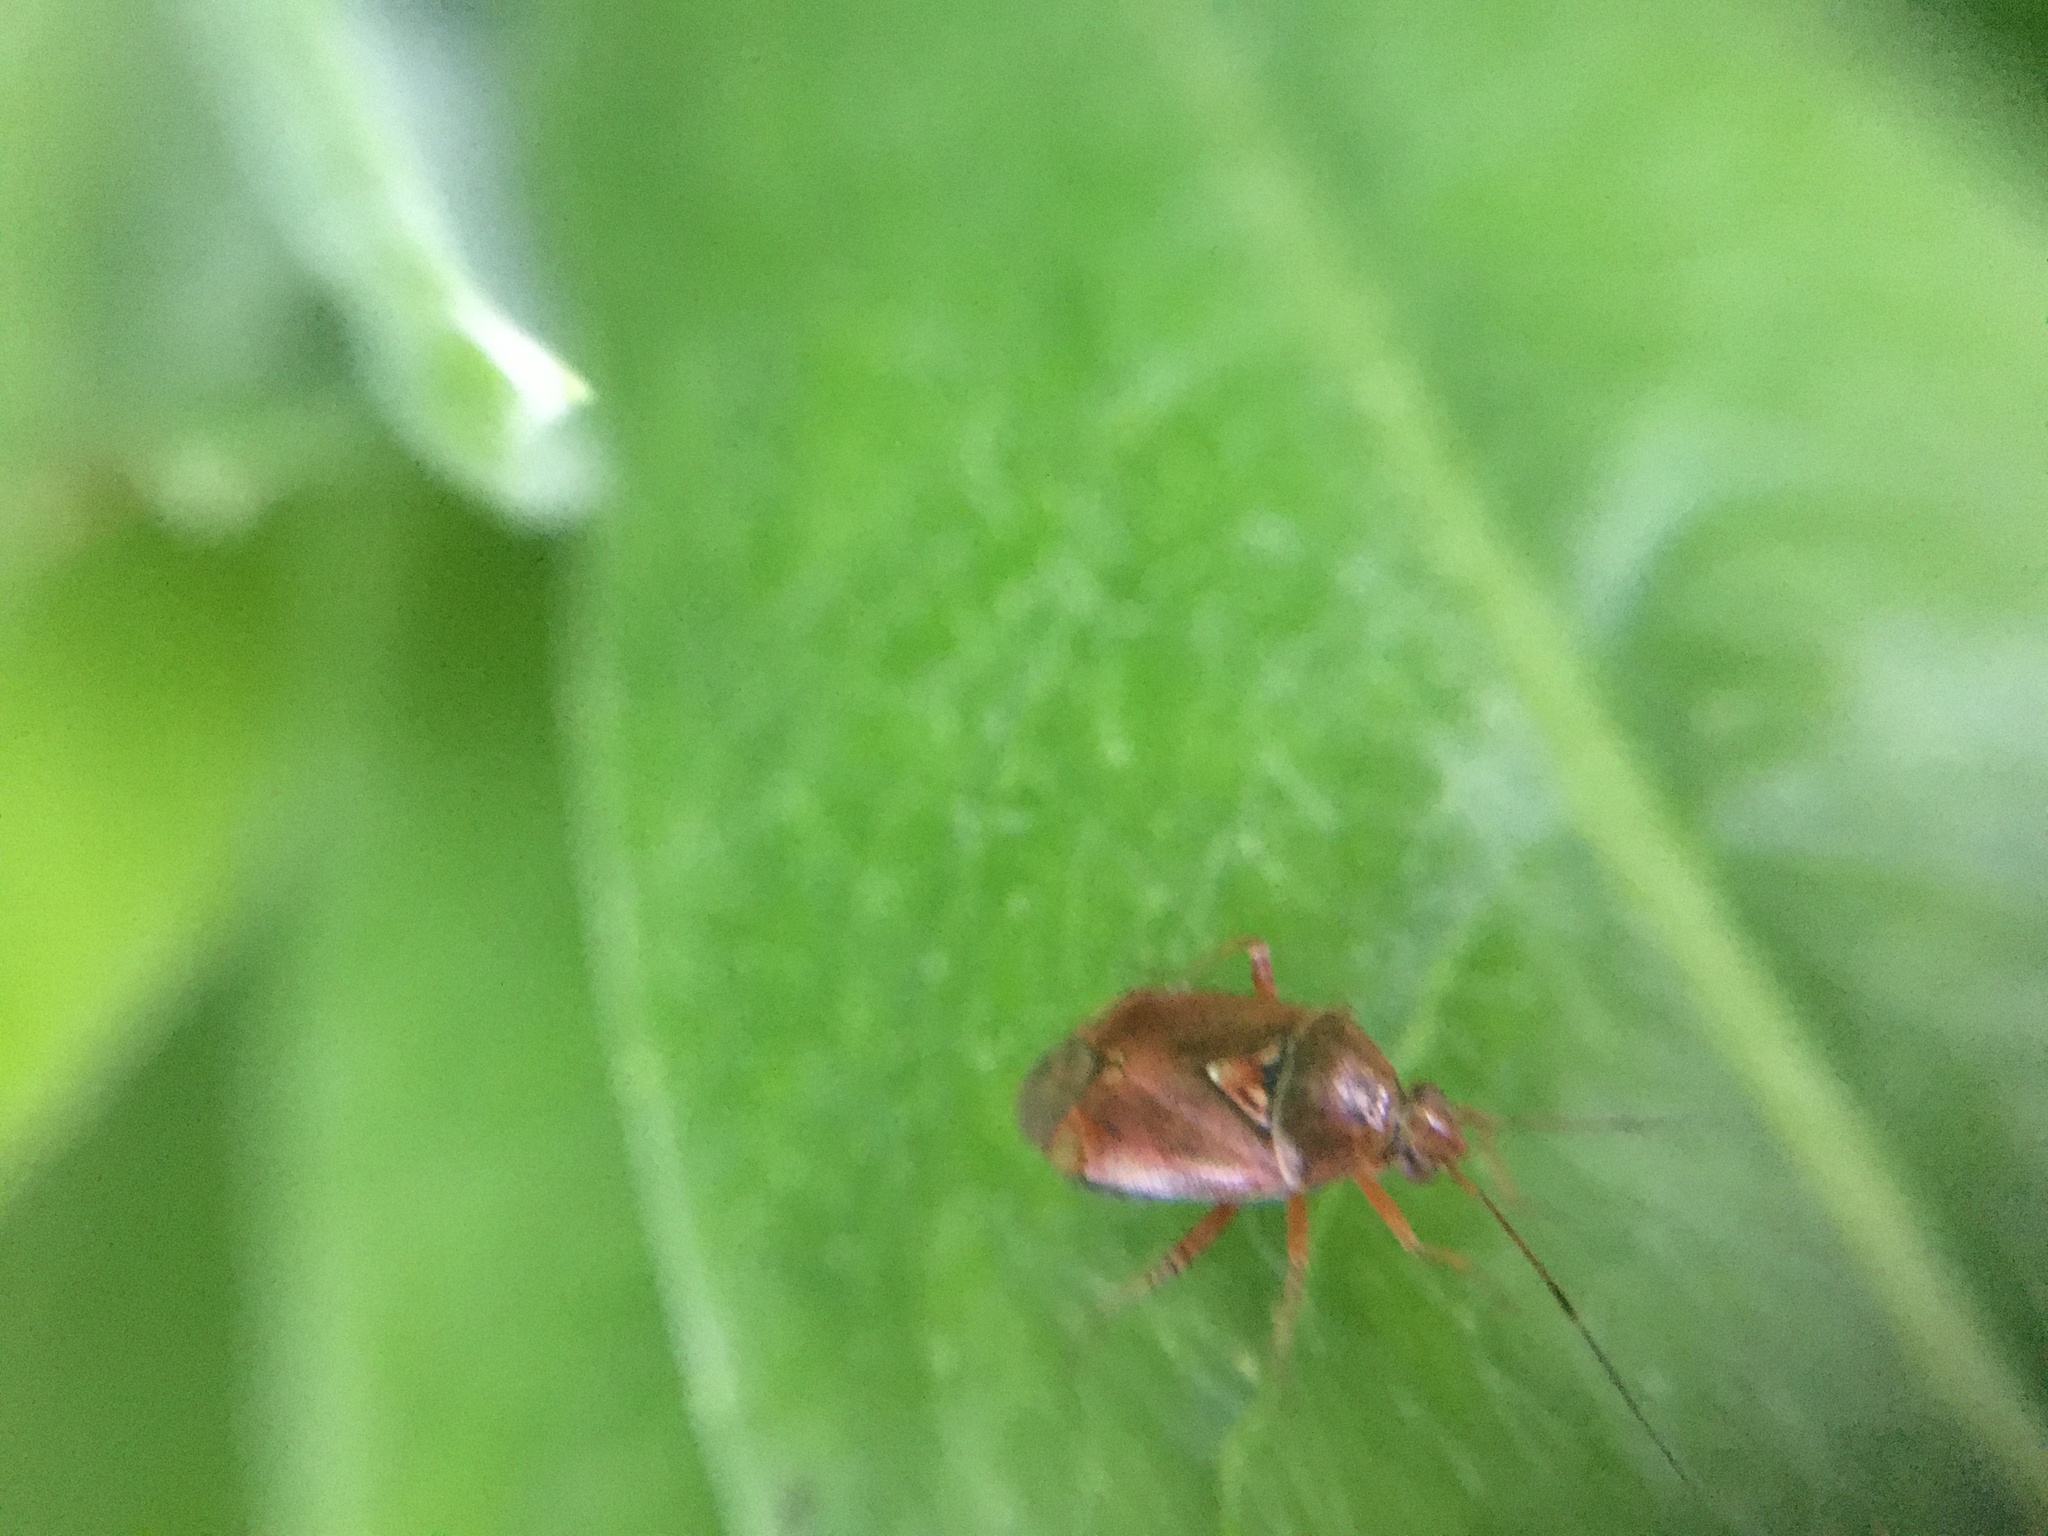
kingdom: Animalia
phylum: Arthropoda
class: Insecta
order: Hemiptera
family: Miridae
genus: Deraeocoris
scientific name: Deraeocoris lutescens
